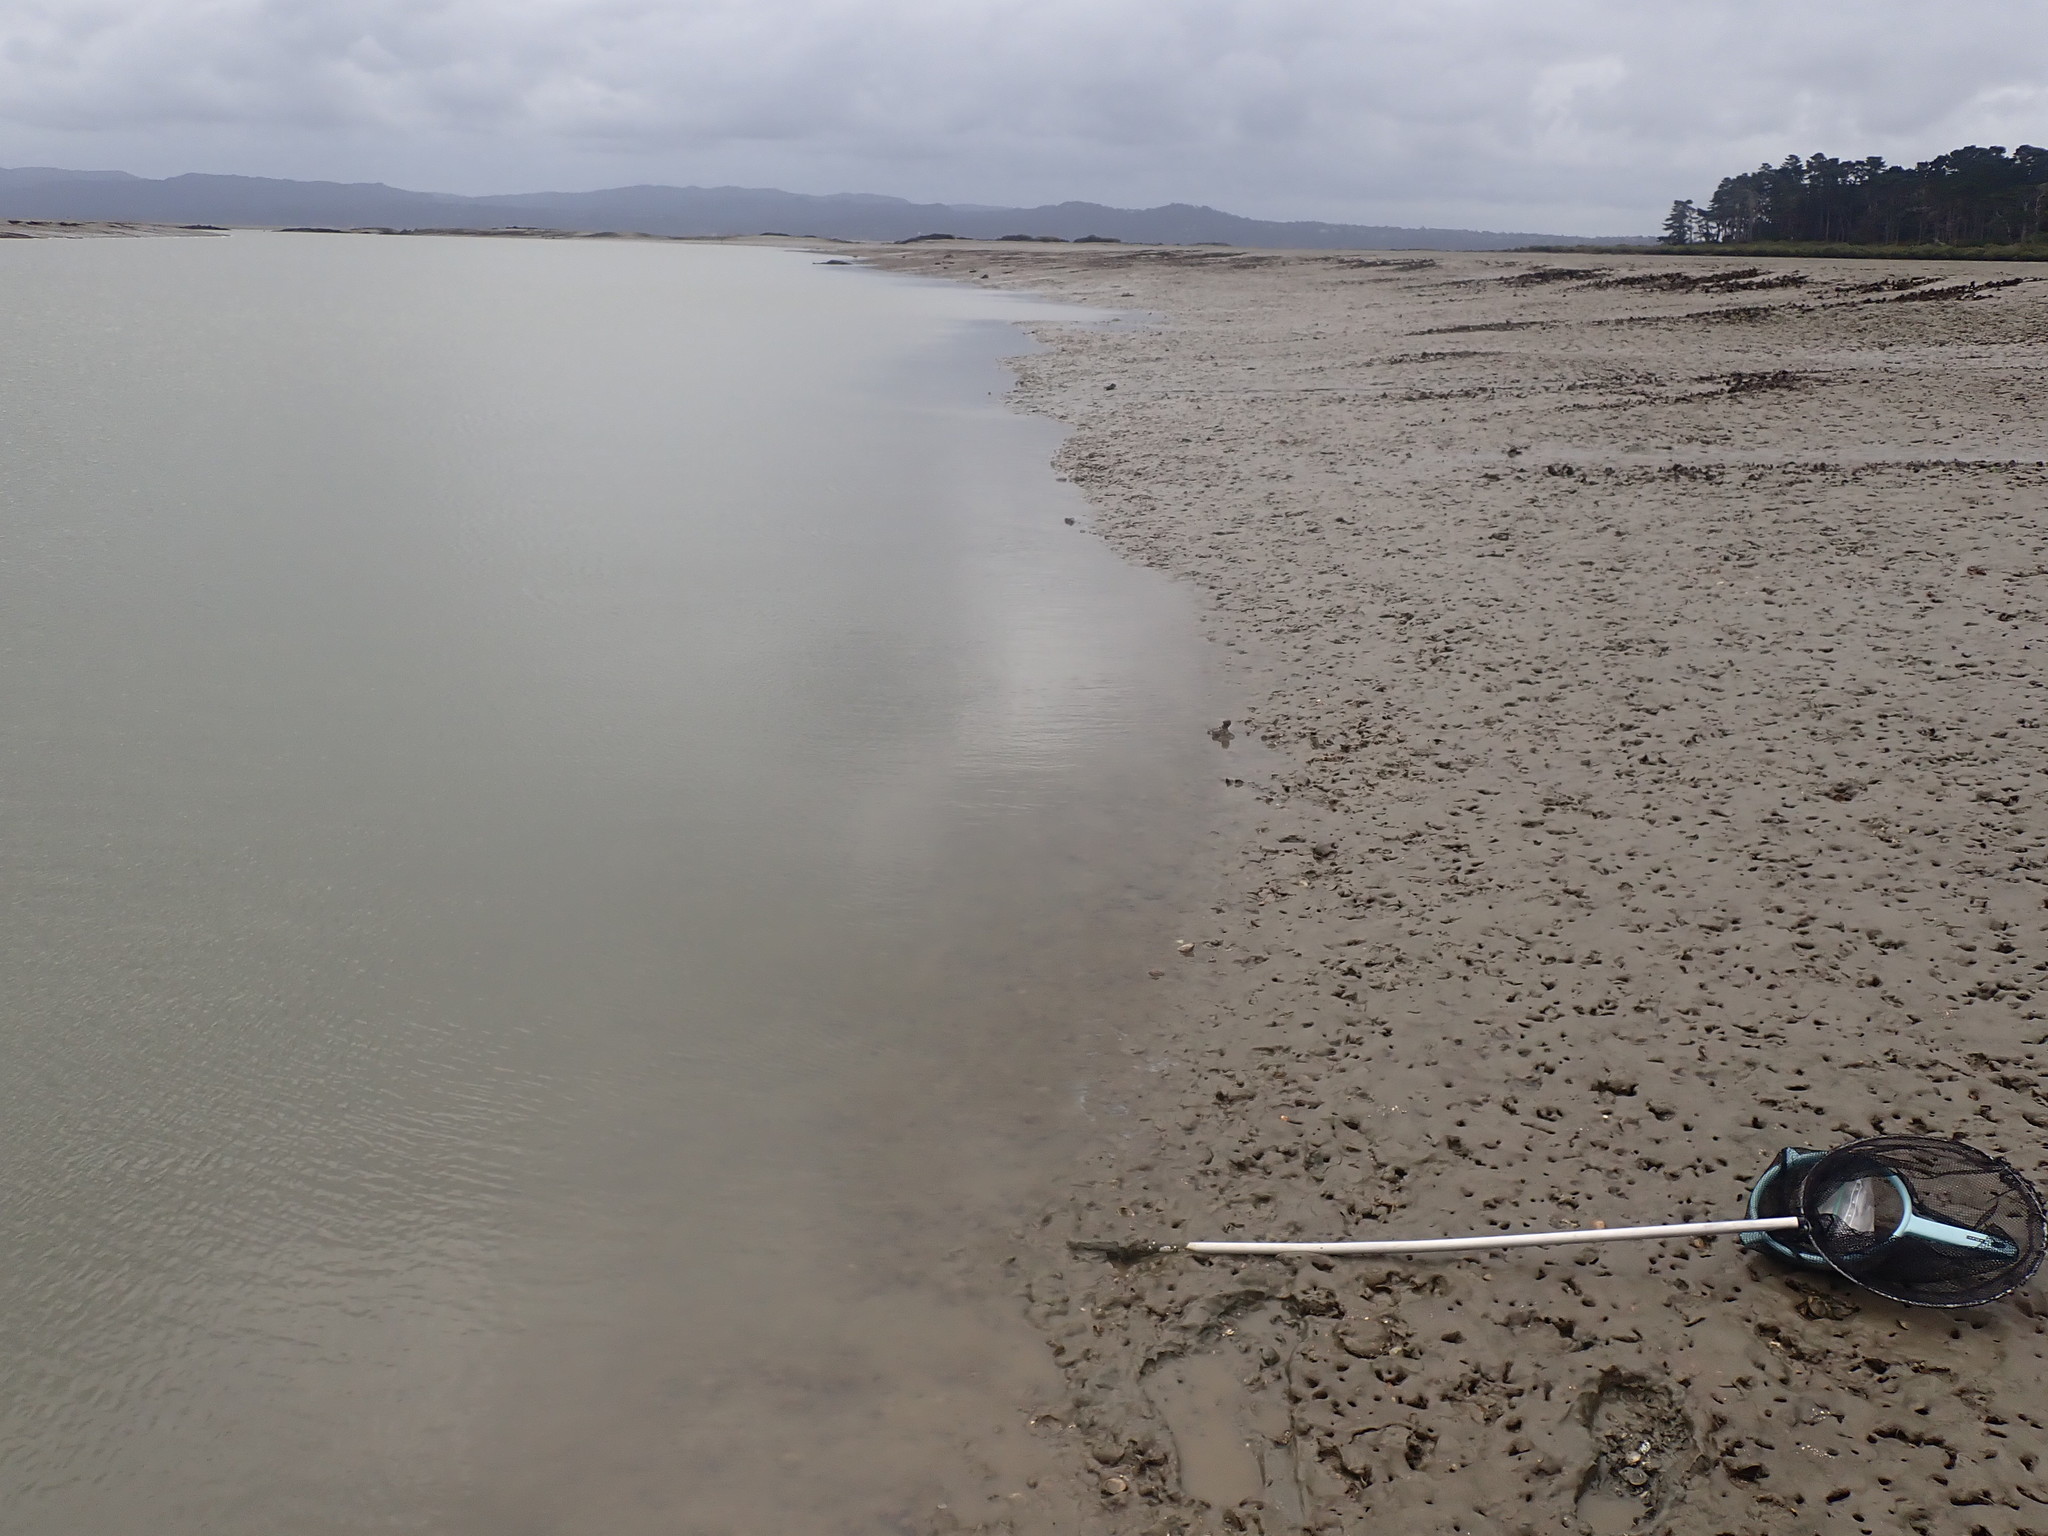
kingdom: Animalia
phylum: Mollusca
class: Bivalvia
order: Pectinida
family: Pectinidae
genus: Pecten
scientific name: Pecten novaezelandiae
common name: New zealand scallop
